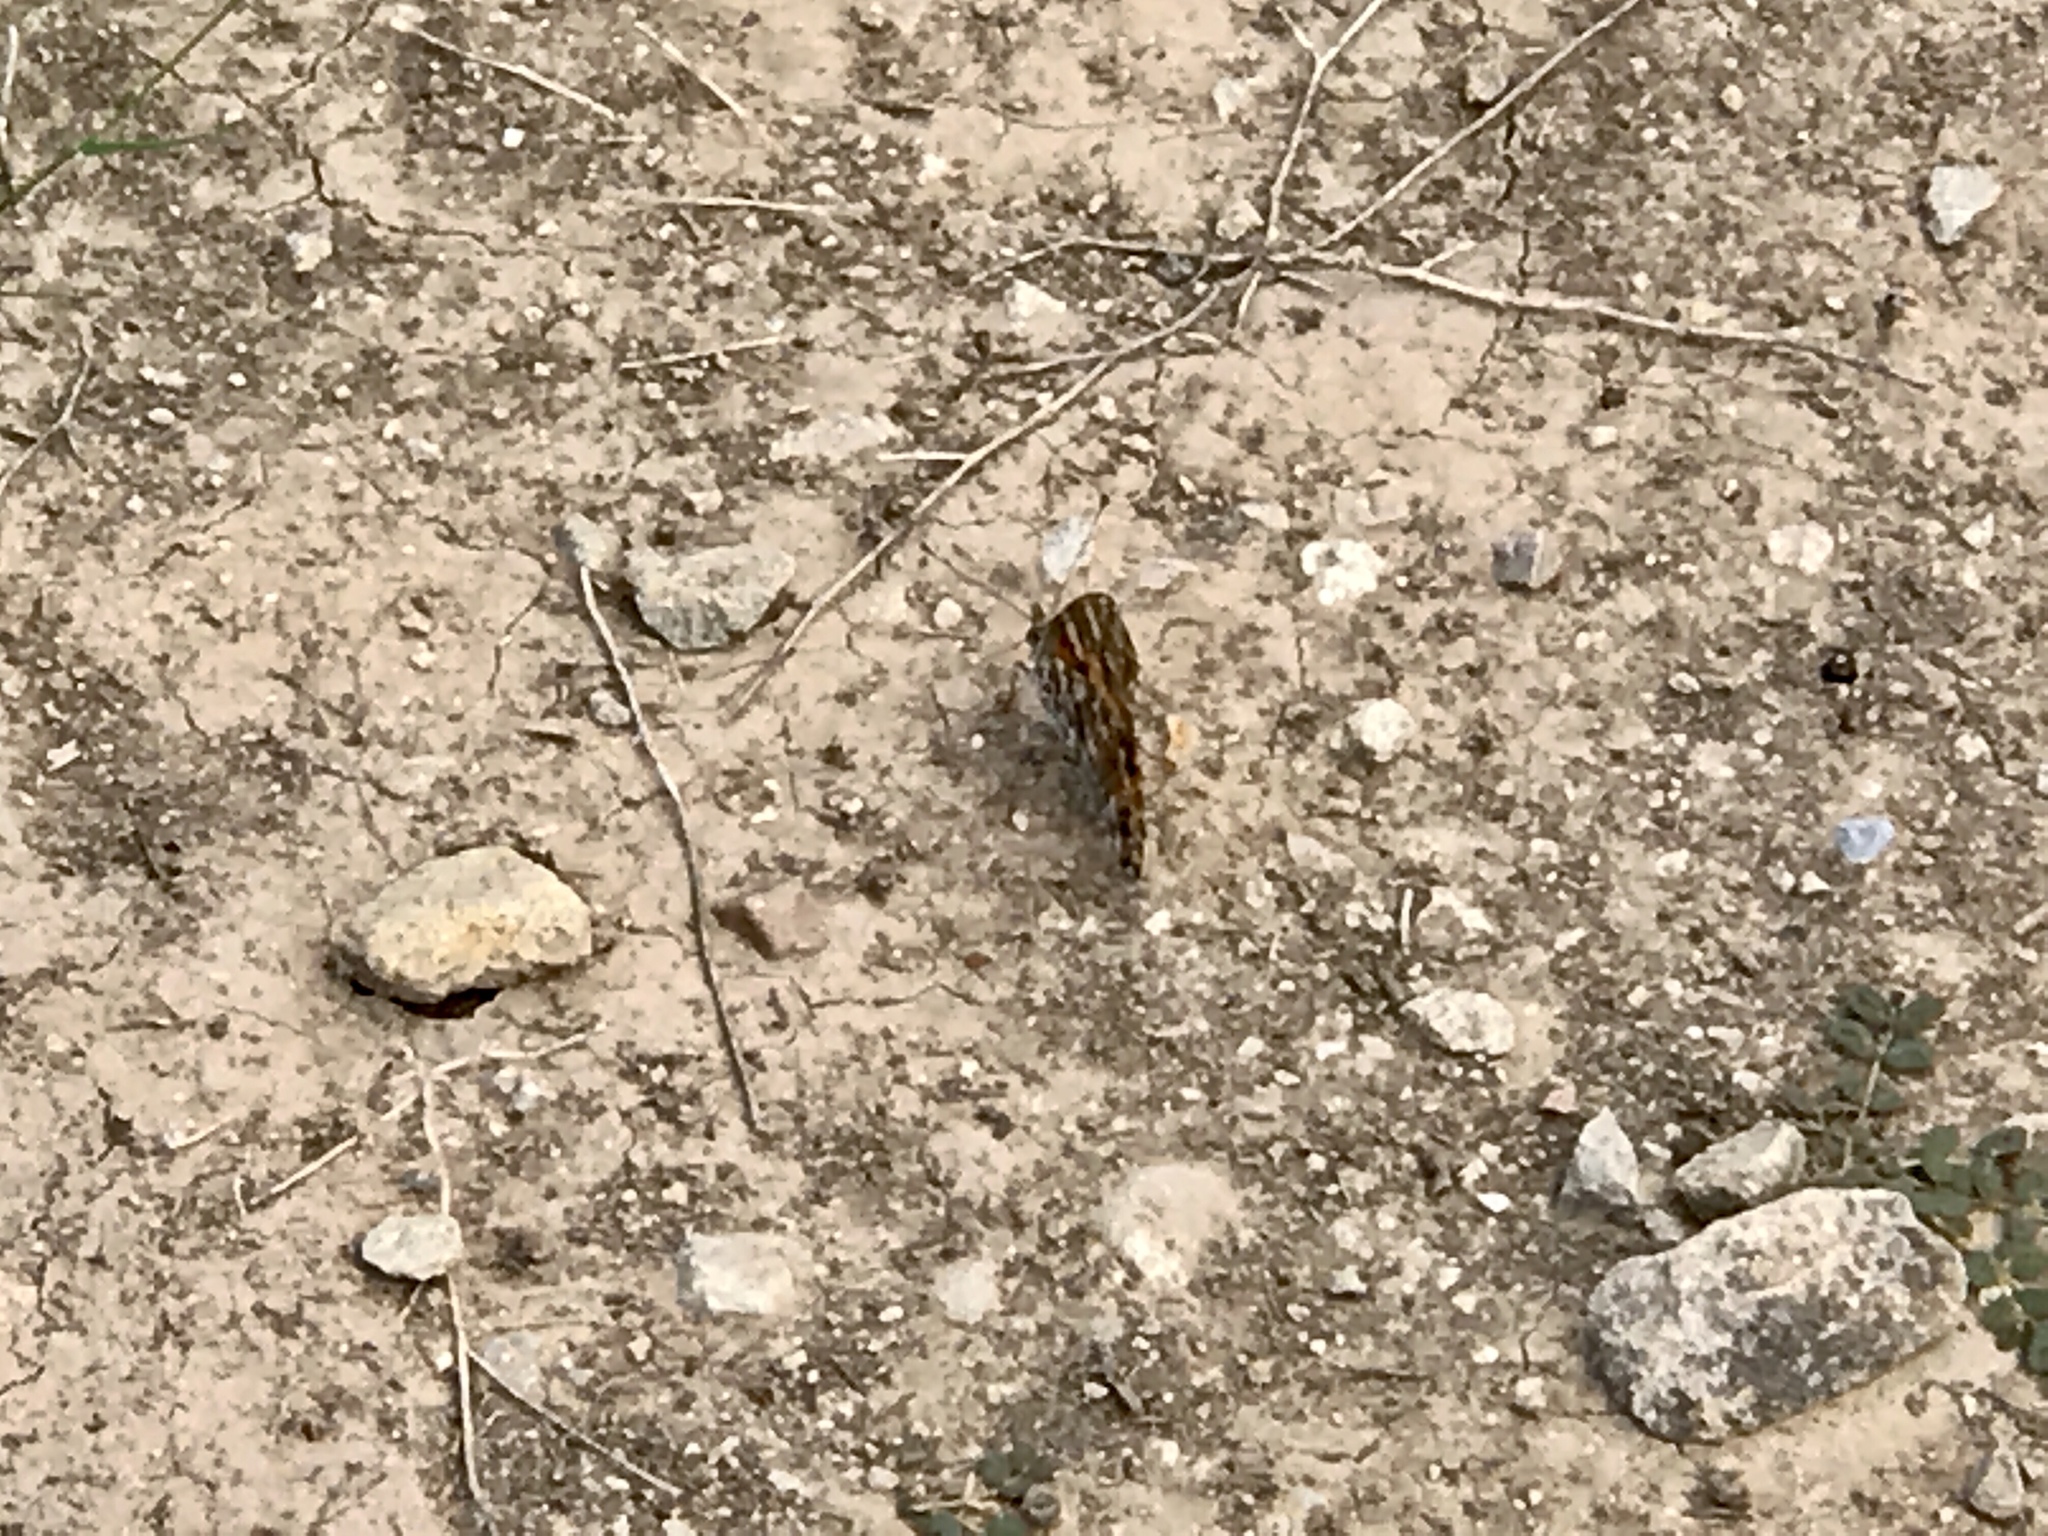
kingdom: Animalia
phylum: Arthropoda
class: Insecta
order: Lepidoptera
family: Nymphalidae
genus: Vanessa
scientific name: Vanessa cardui
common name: Painted lady
